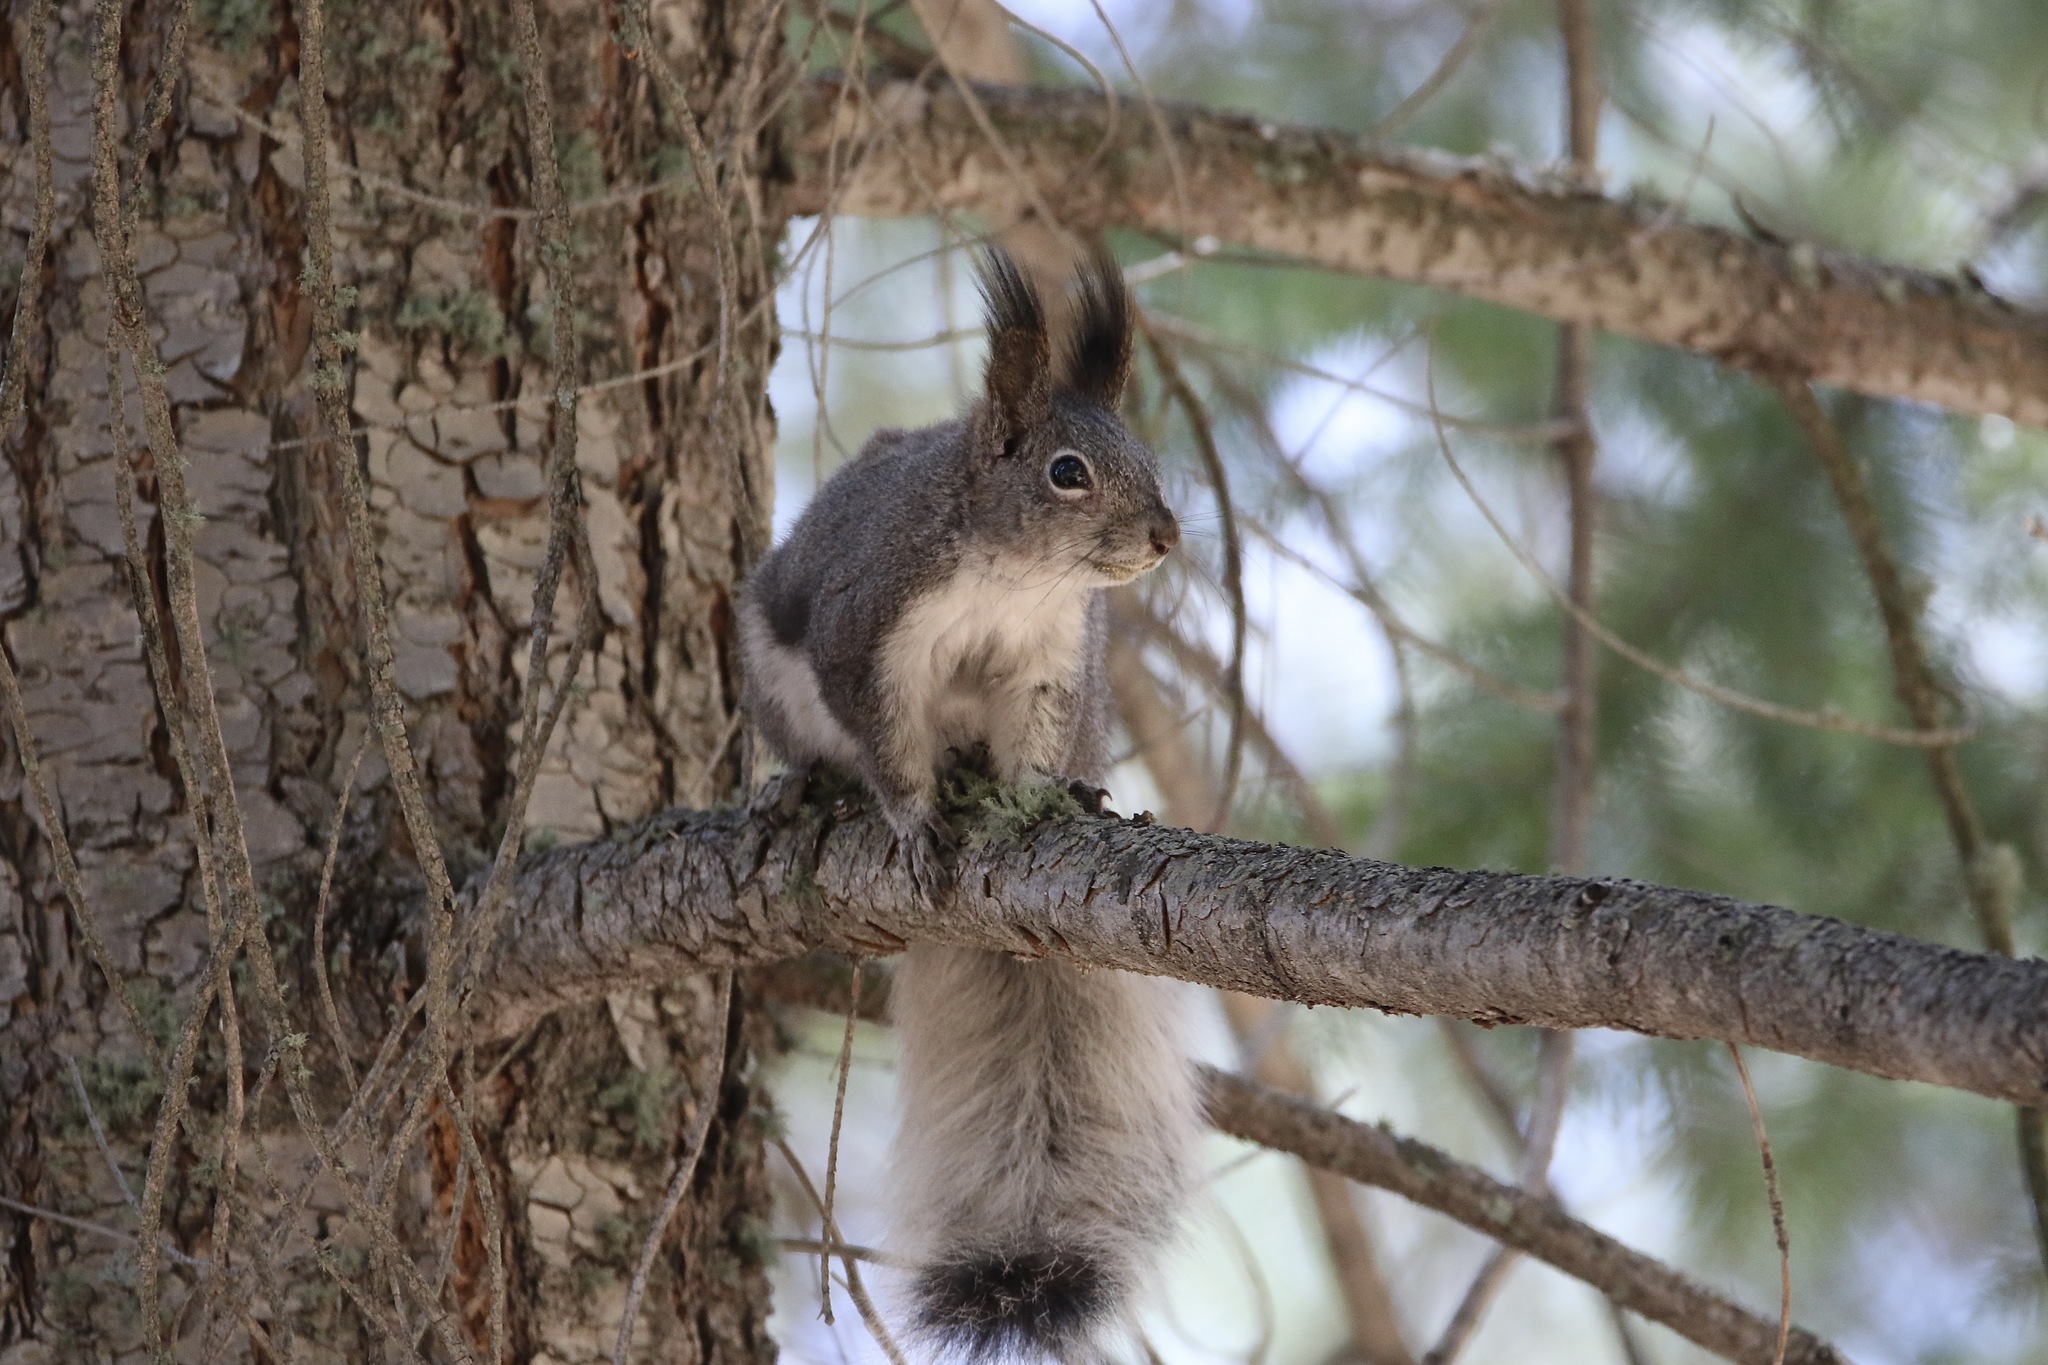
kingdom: Animalia
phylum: Chordata
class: Mammalia
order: Rodentia
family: Sciuridae
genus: Sciurus
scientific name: Sciurus aberti
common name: Abert's squirrel
